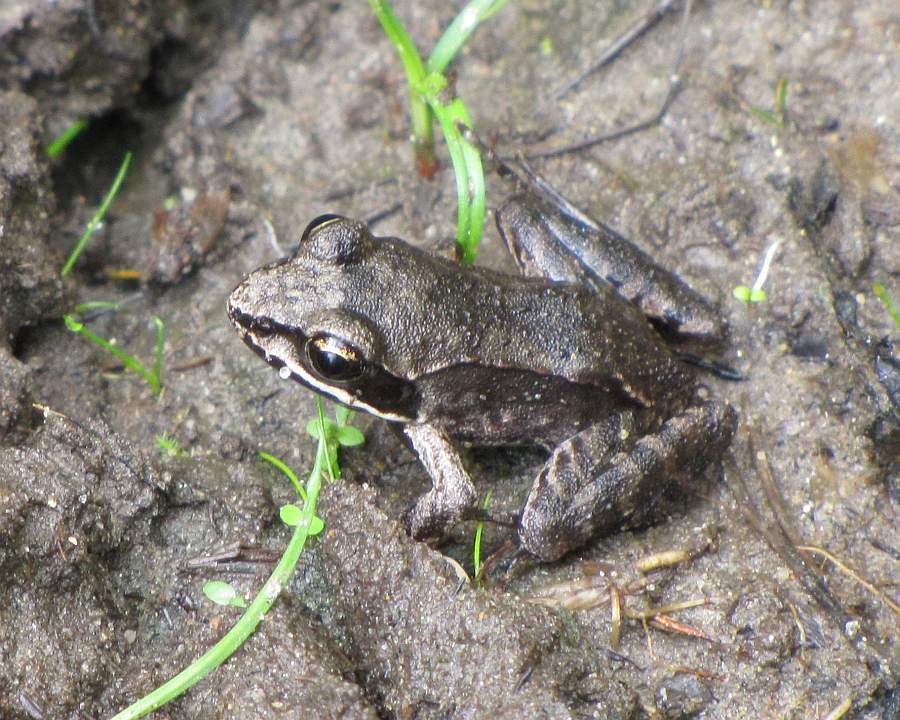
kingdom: Animalia
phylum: Chordata
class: Amphibia
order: Anura
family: Ranidae
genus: Lithobates
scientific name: Lithobates sylvaticus
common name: Wood frog
